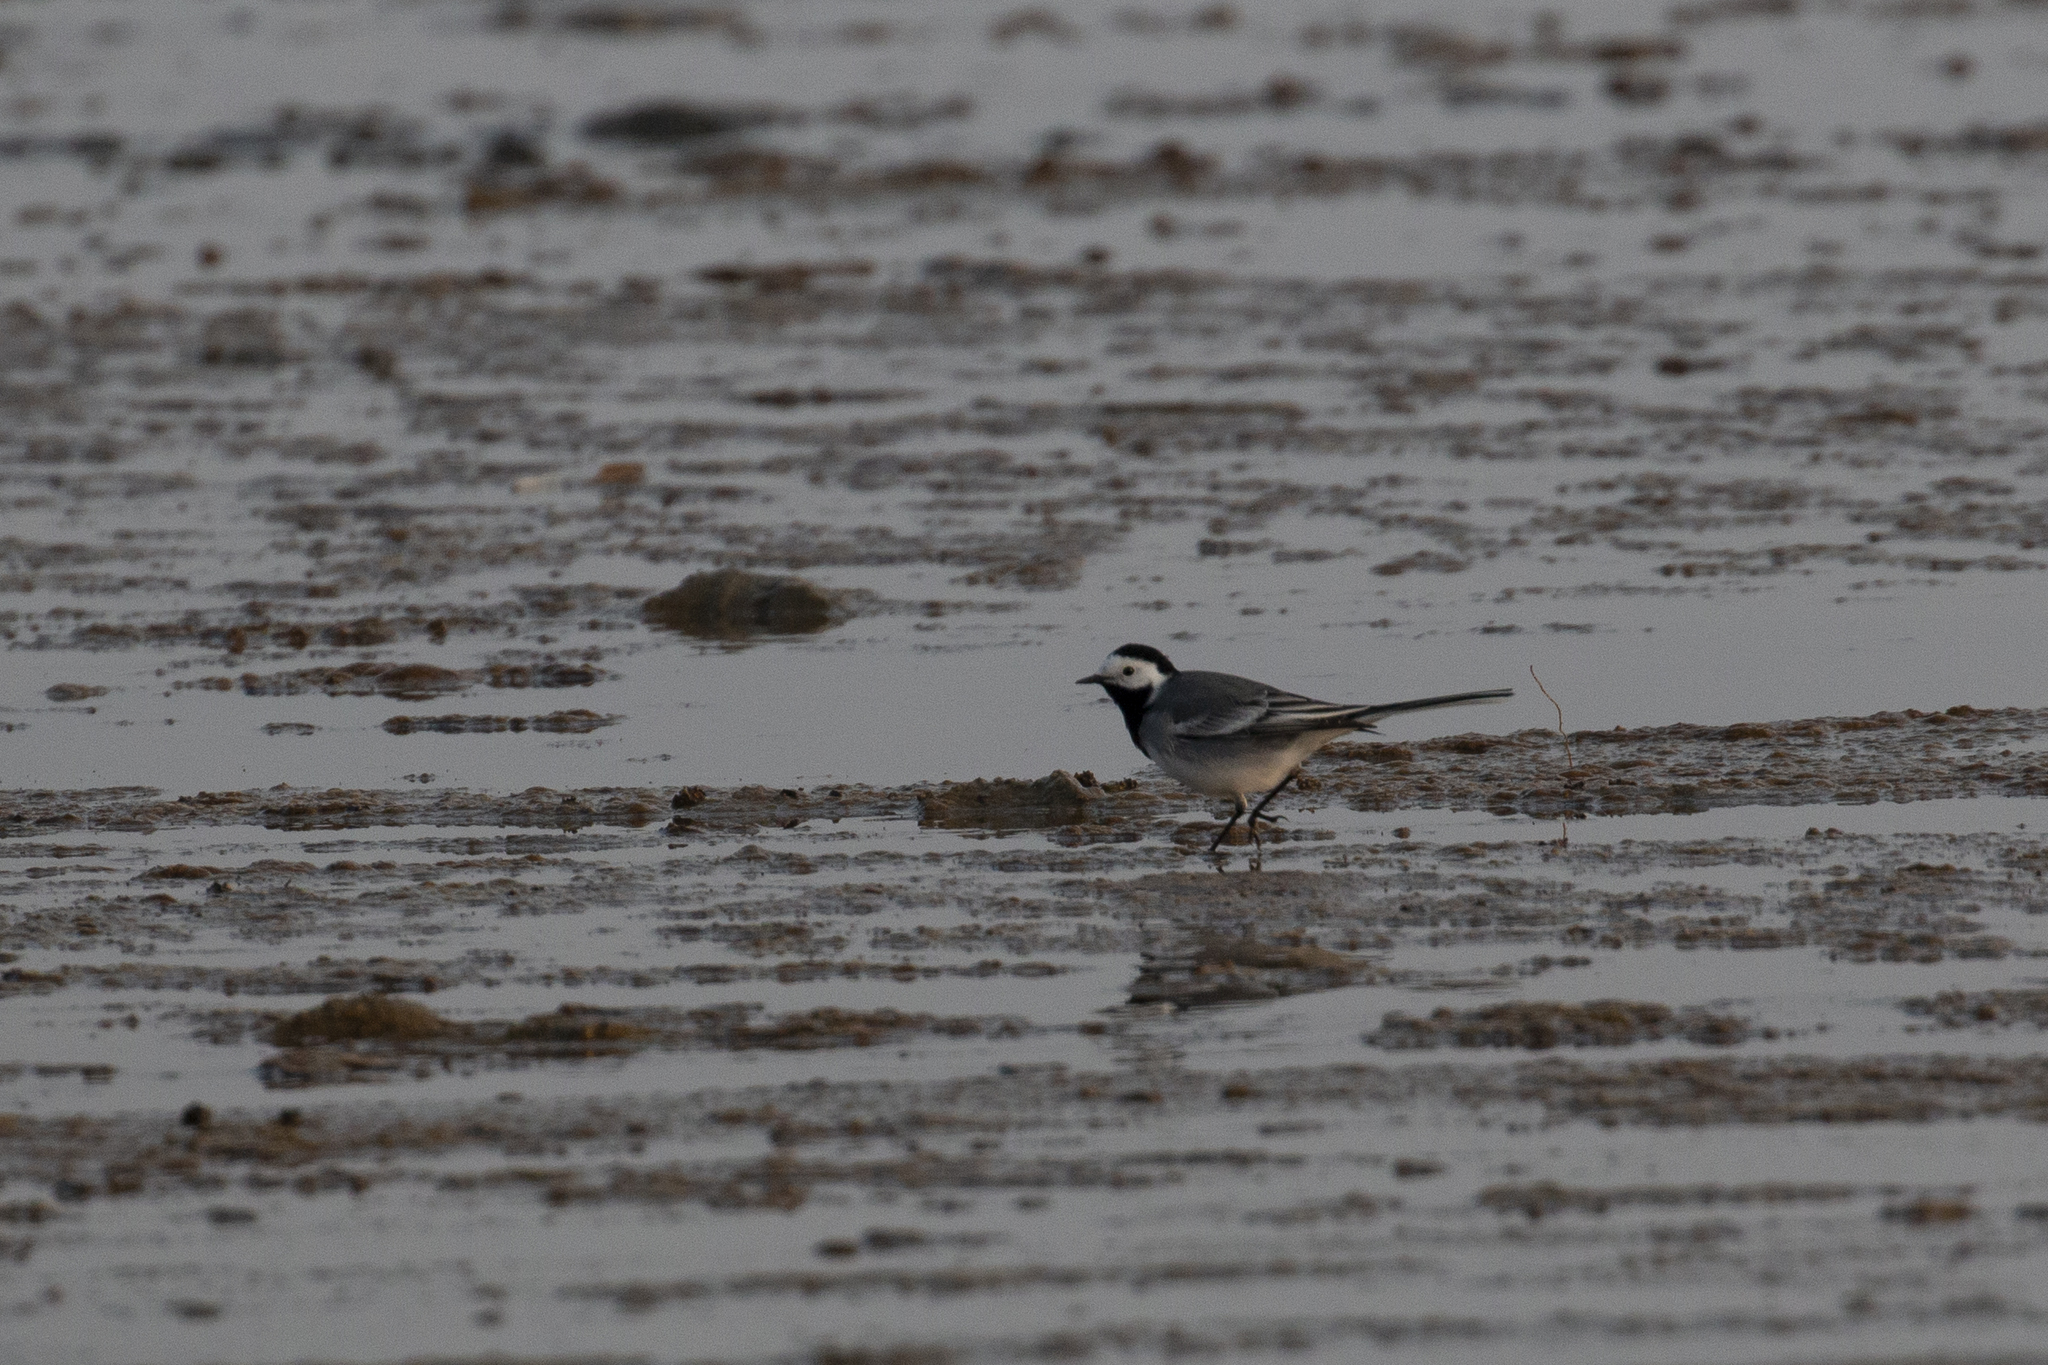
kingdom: Animalia
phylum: Chordata
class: Aves
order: Passeriformes
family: Motacillidae
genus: Motacilla
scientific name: Motacilla alba
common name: White wagtail
